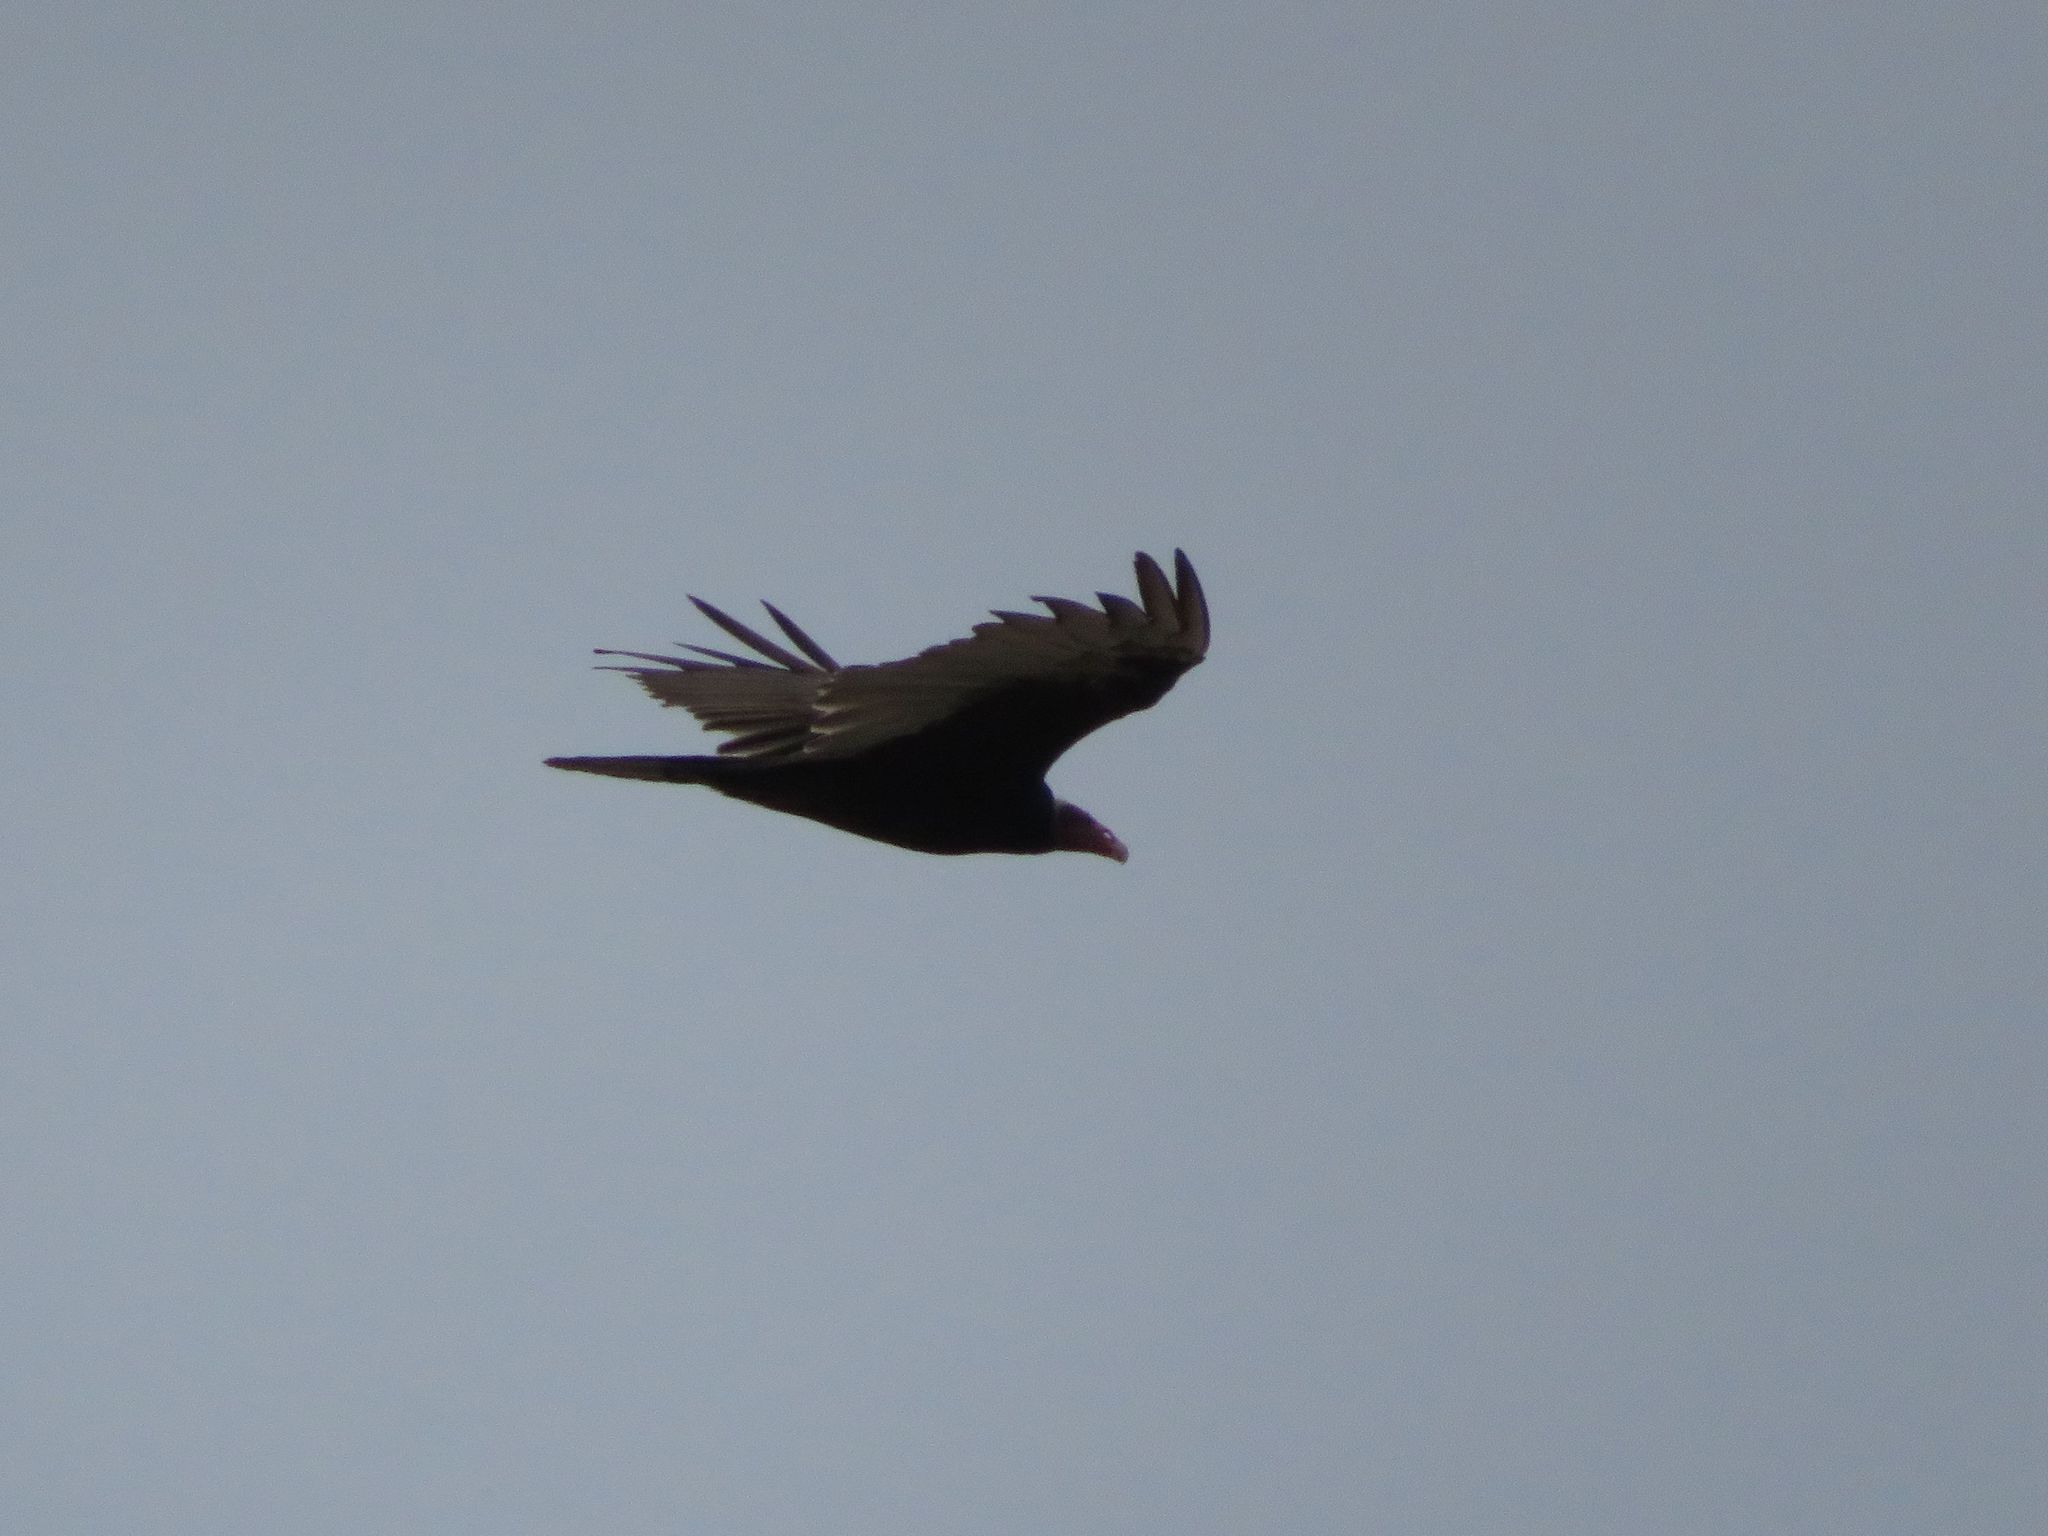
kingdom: Animalia
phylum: Chordata
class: Aves
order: Accipitriformes
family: Cathartidae
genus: Cathartes
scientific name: Cathartes aura
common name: Turkey vulture
